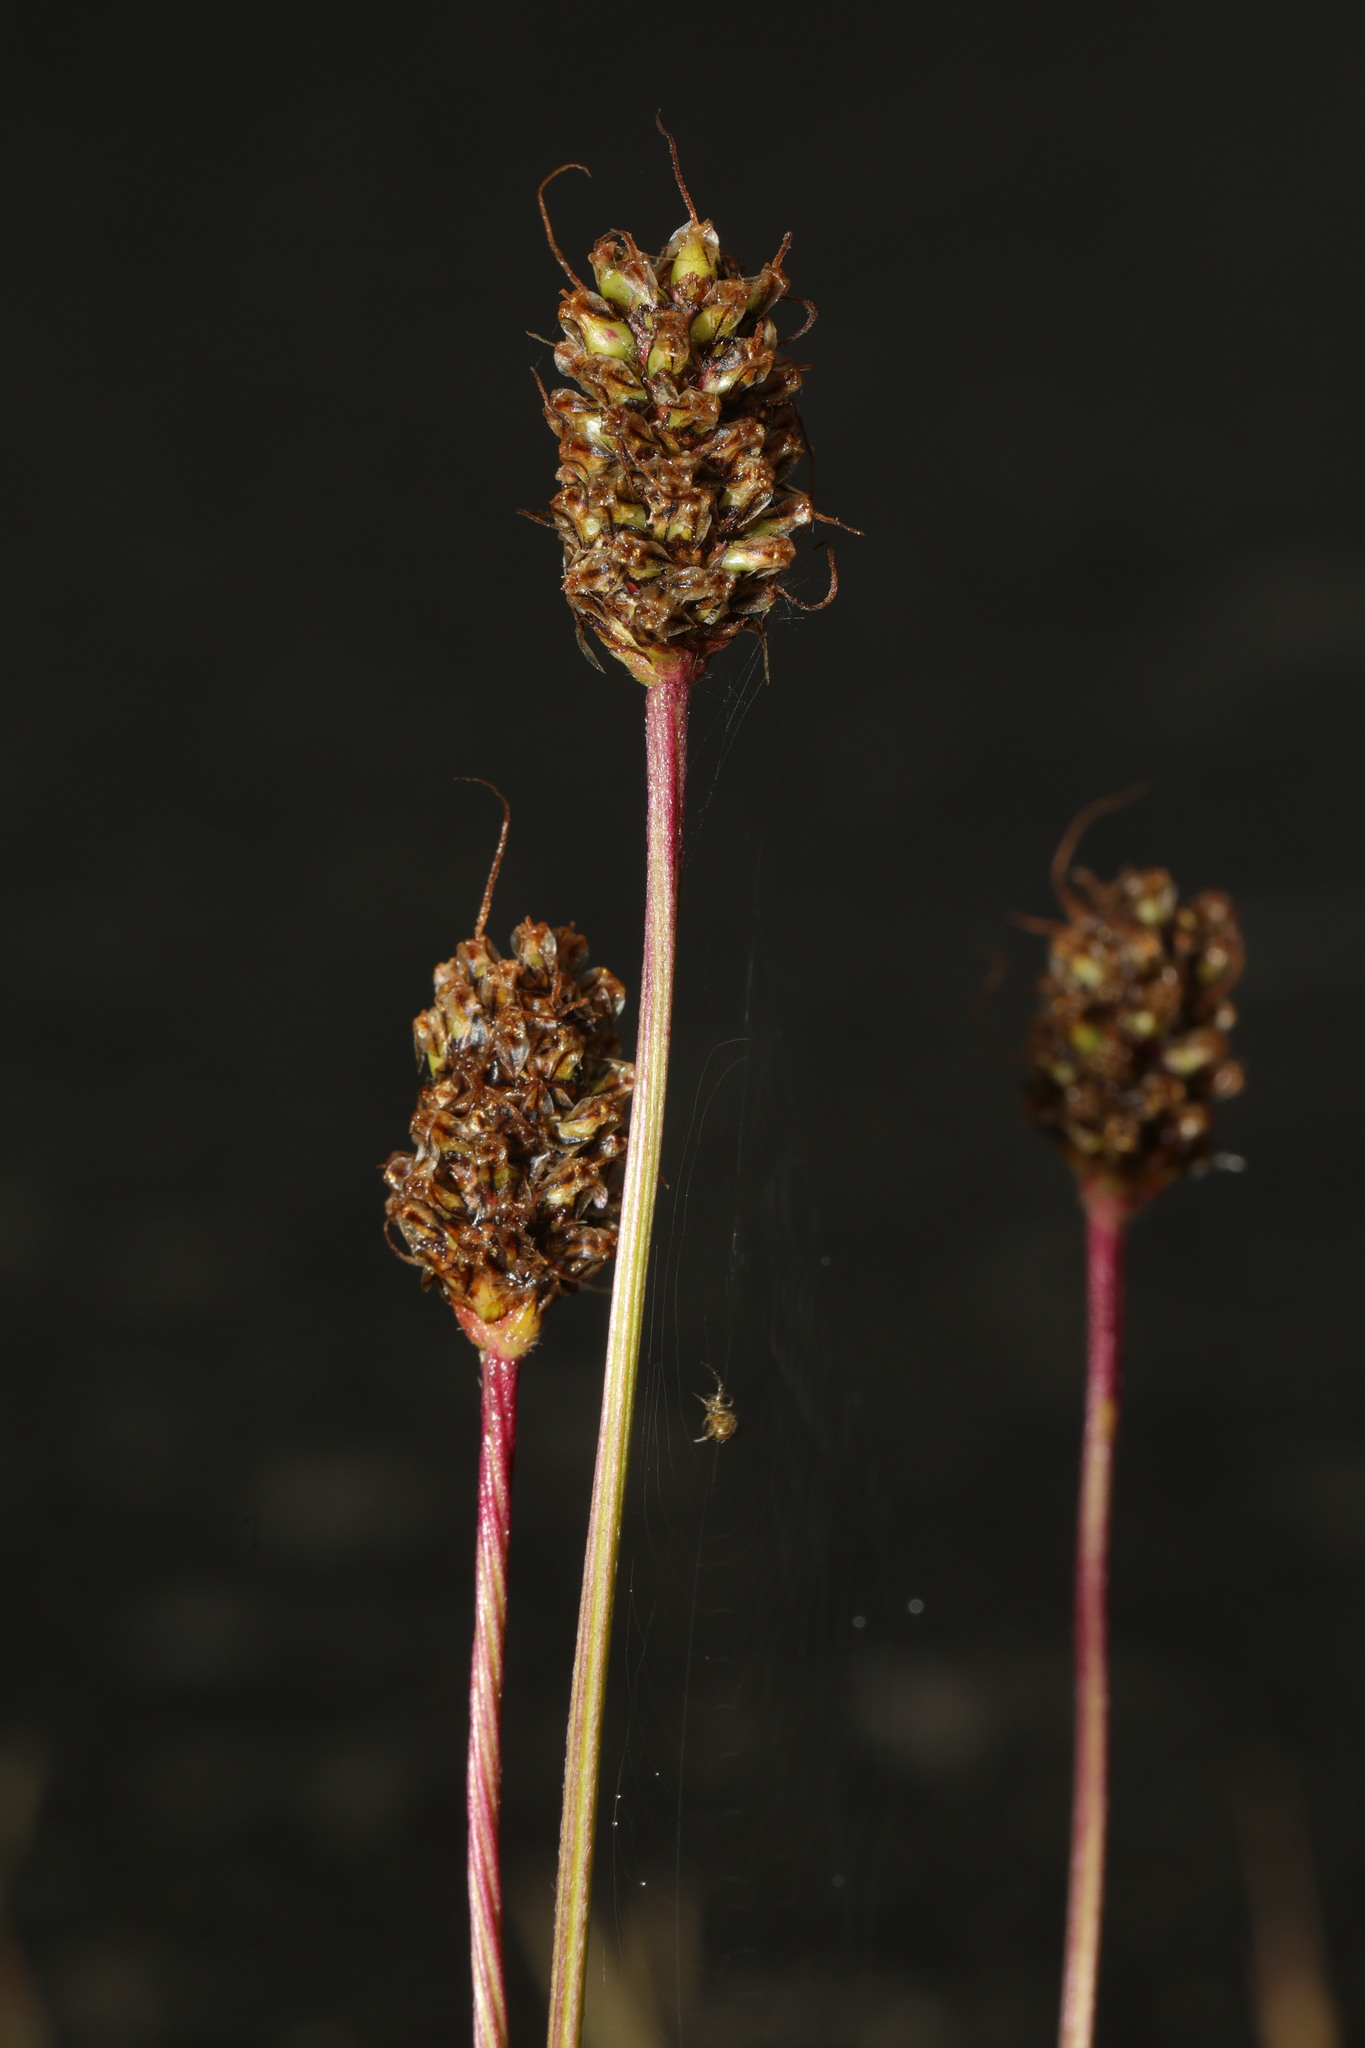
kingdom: Plantae
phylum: Tracheophyta
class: Magnoliopsida
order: Lamiales
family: Plantaginaceae
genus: Plantago
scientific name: Plantago lanceolata
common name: Ribwort plantain
